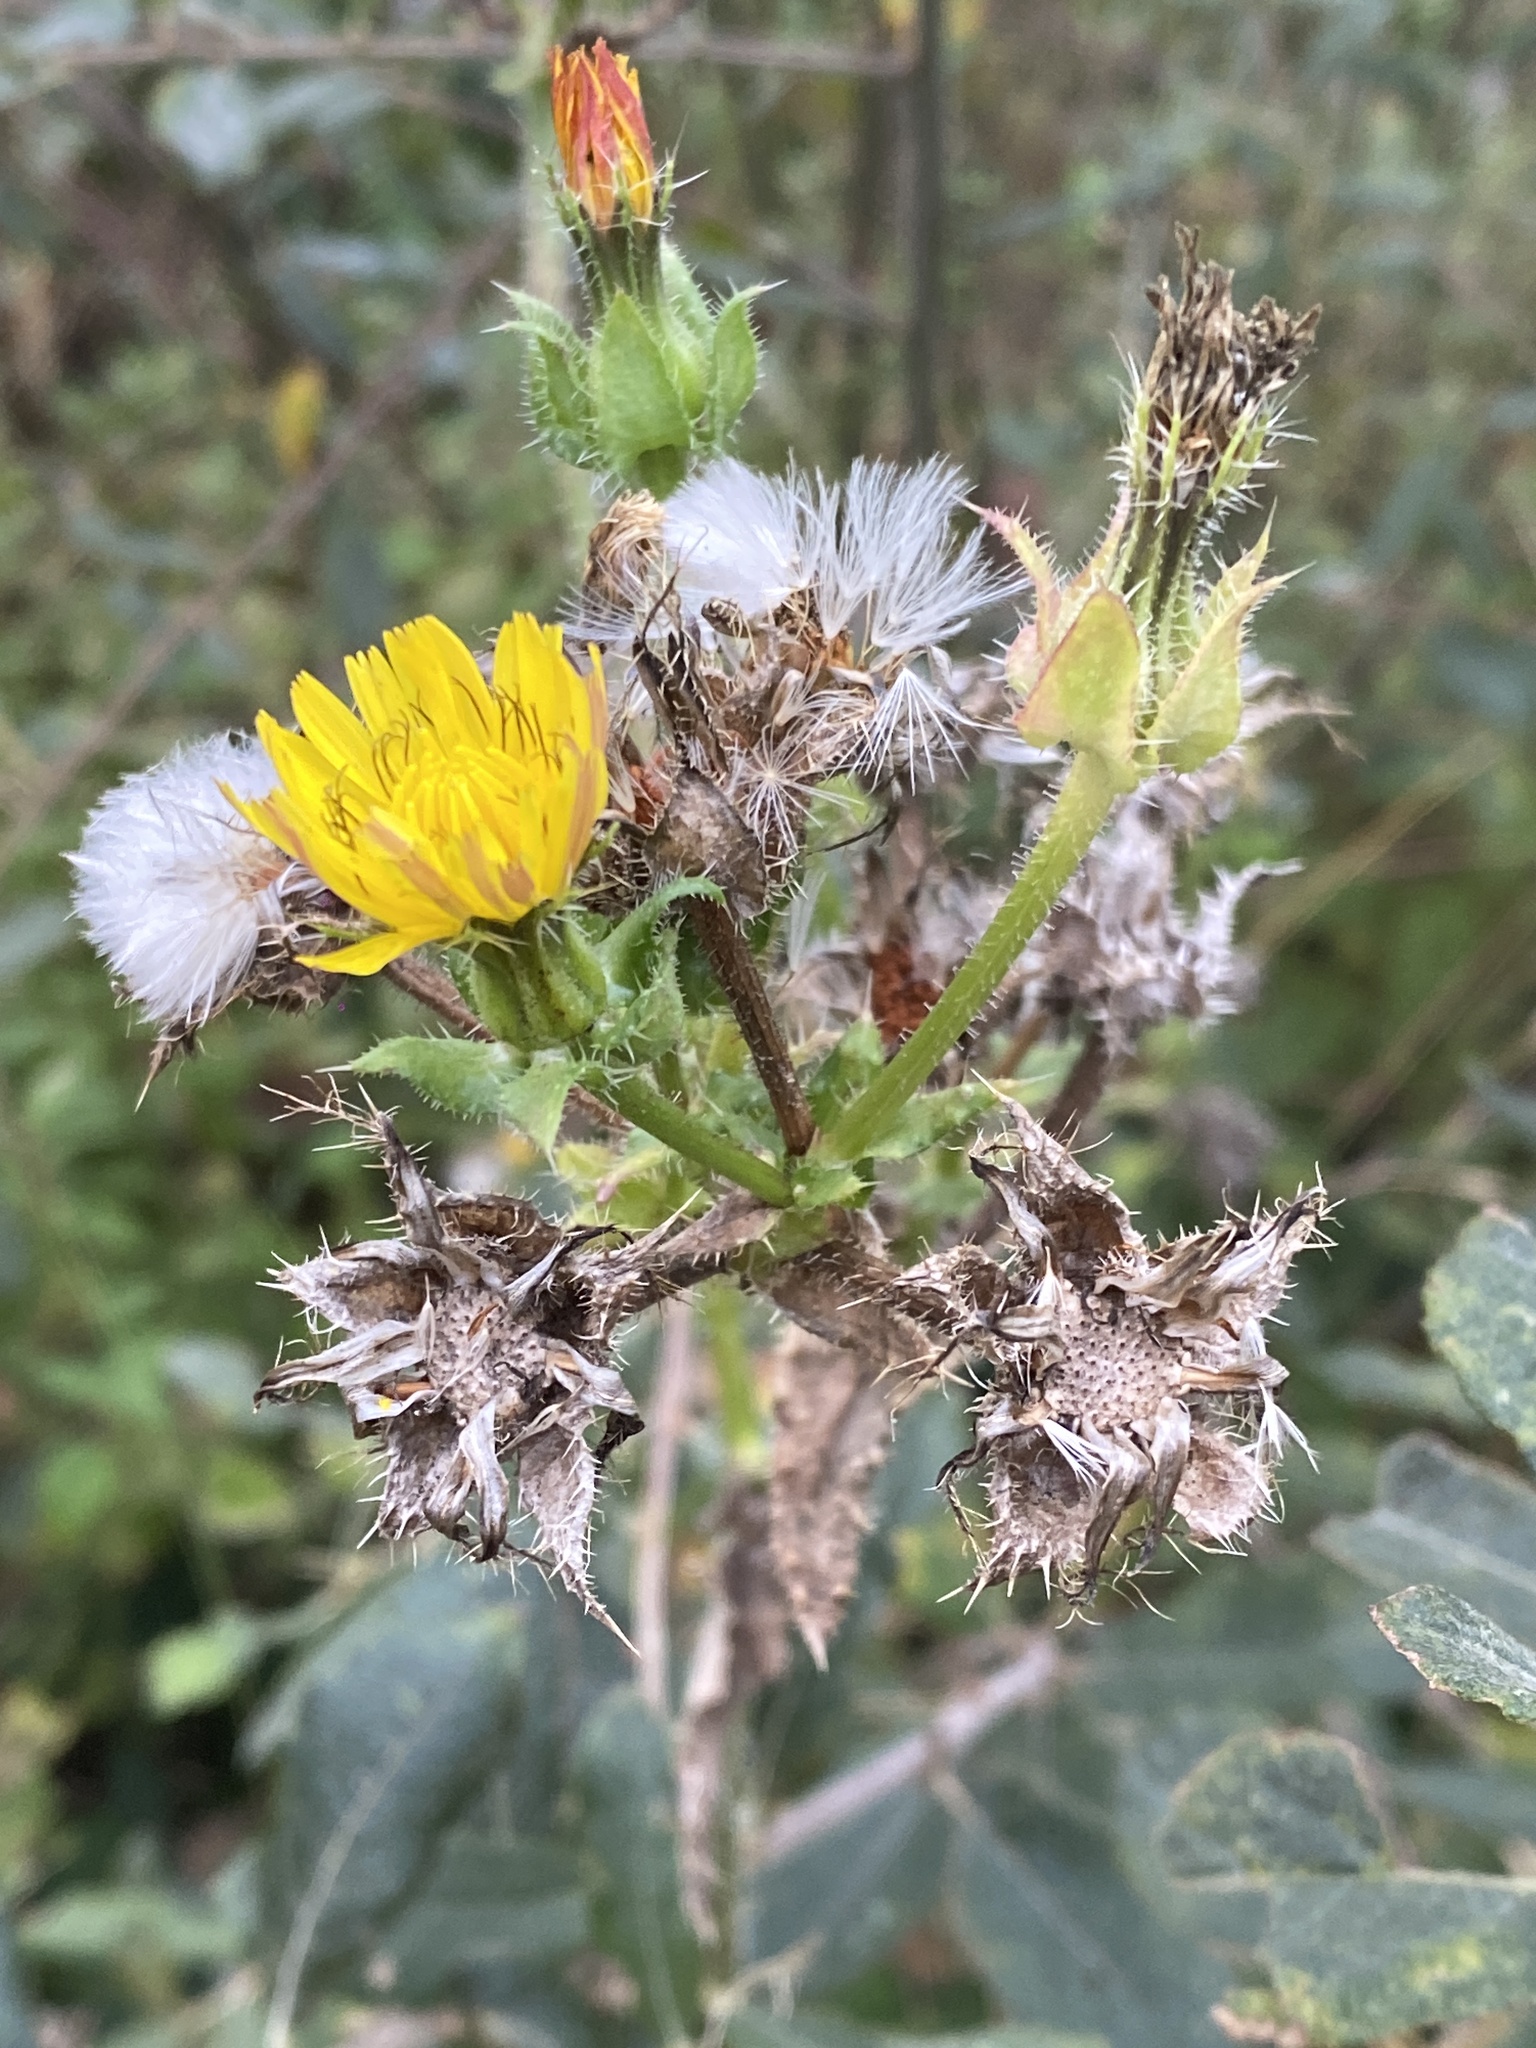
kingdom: Plantae
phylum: Tracheophyta
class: Magnoliopsida
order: Asterales
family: Asteraceae
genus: Helminthotheca
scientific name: Helminthotheca echioides
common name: Ox-tongue
